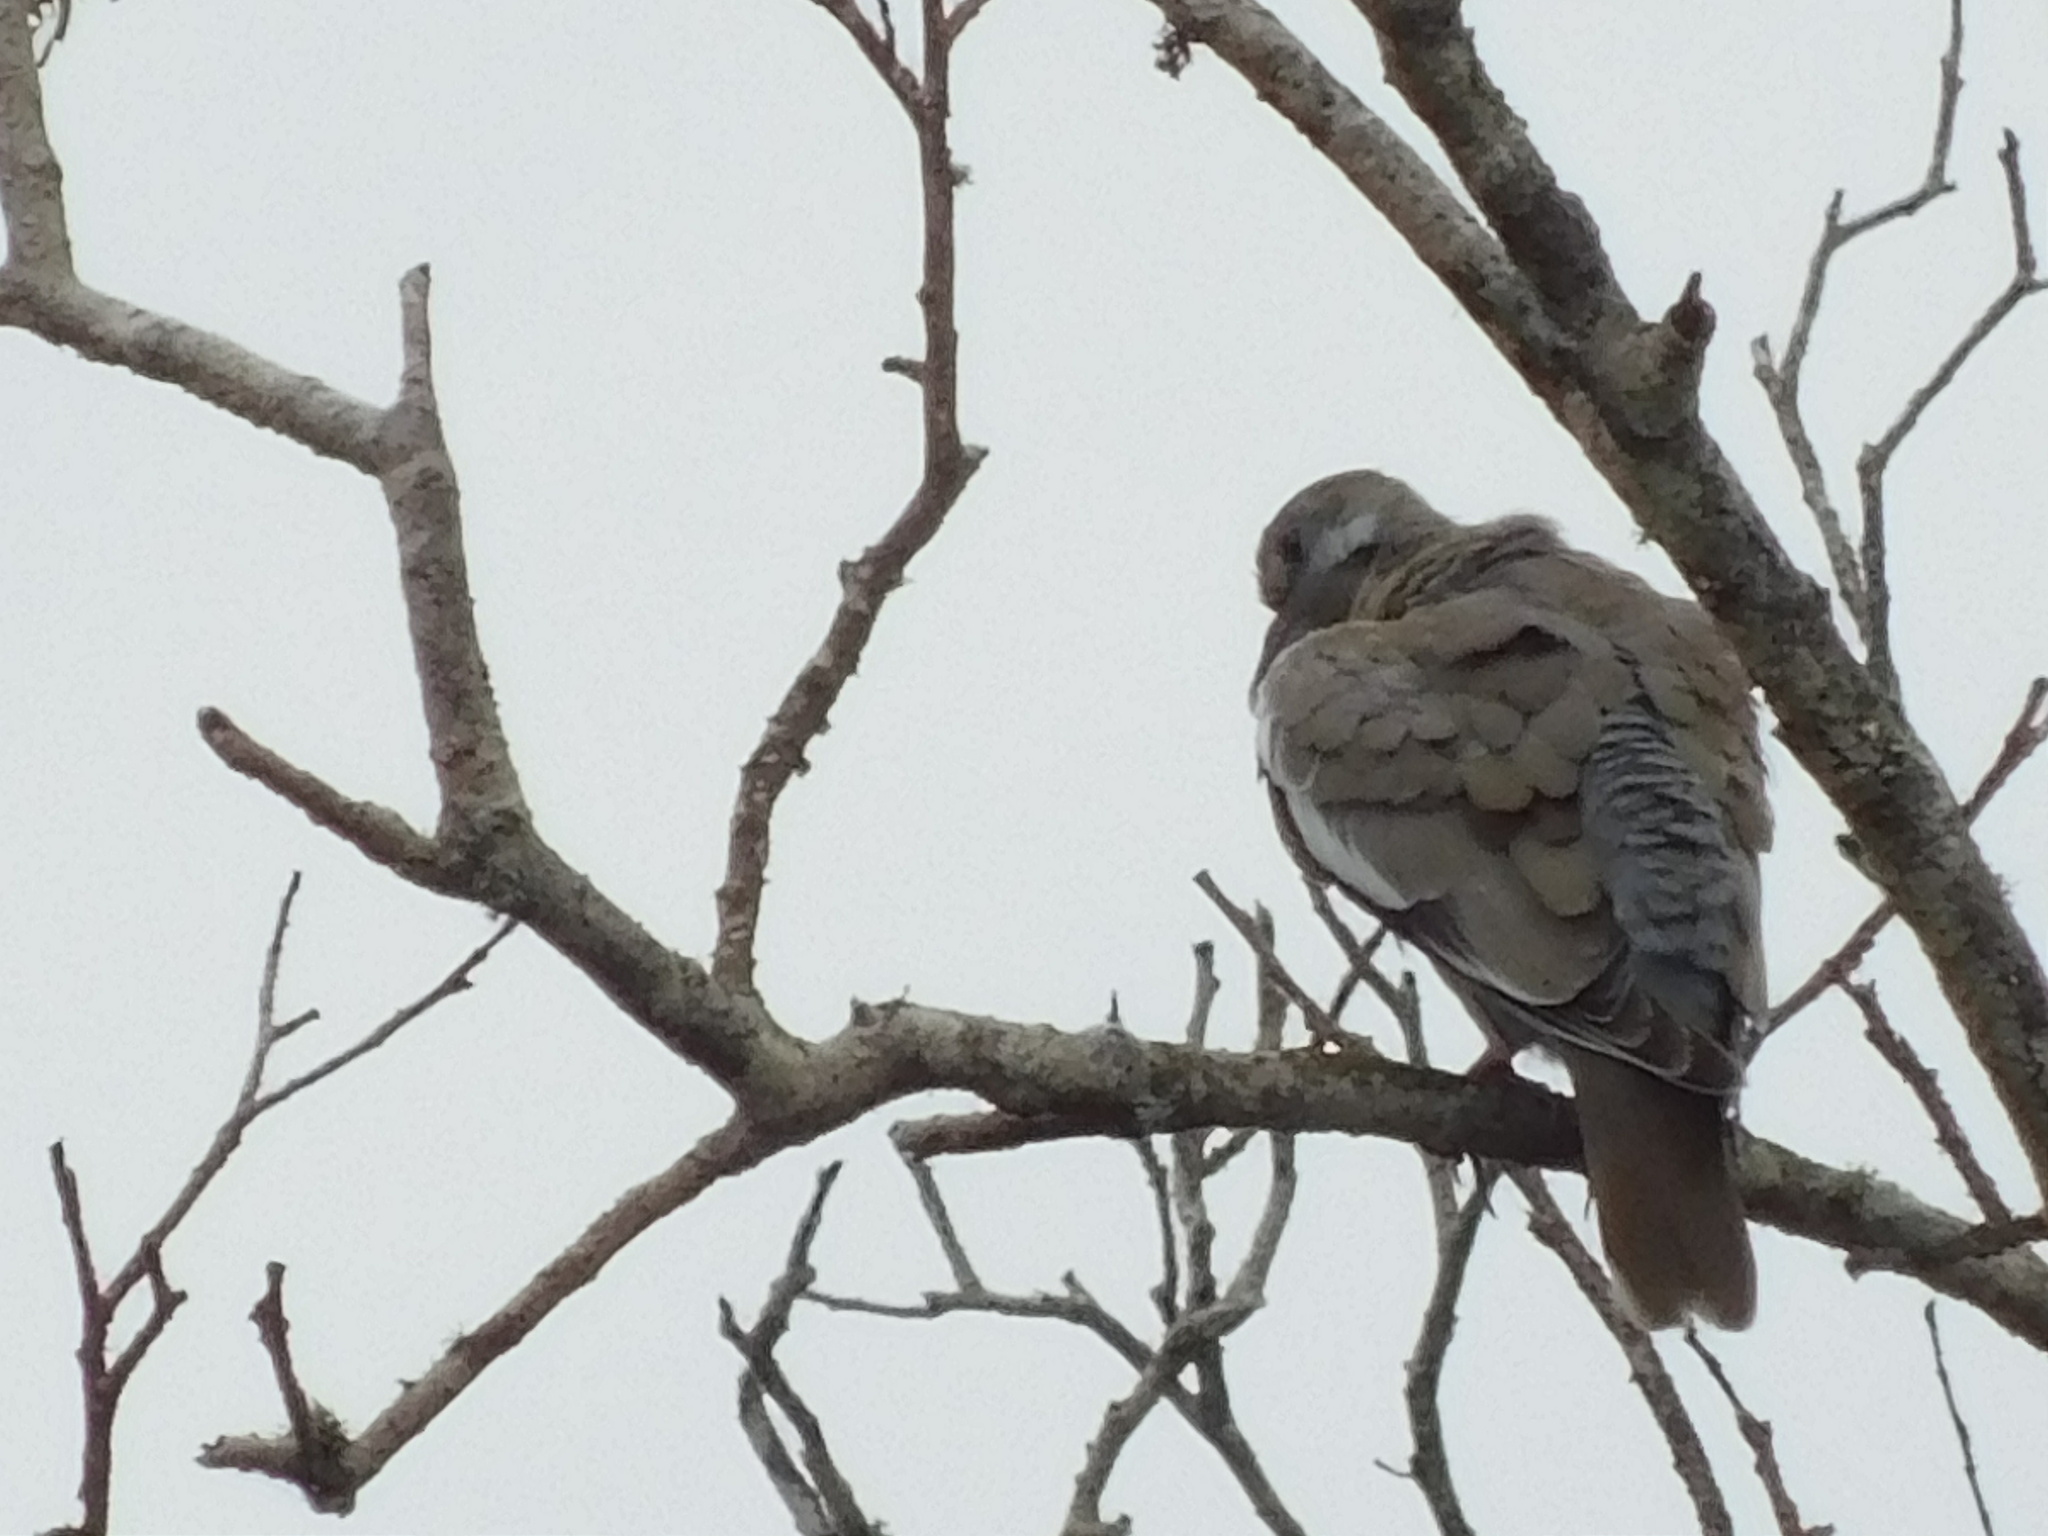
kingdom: Animalia
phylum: Chordata
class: Aves
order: Columbiformes
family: Columbidae
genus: Zenaida
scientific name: Zenaida asiatica
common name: White-winged dove
